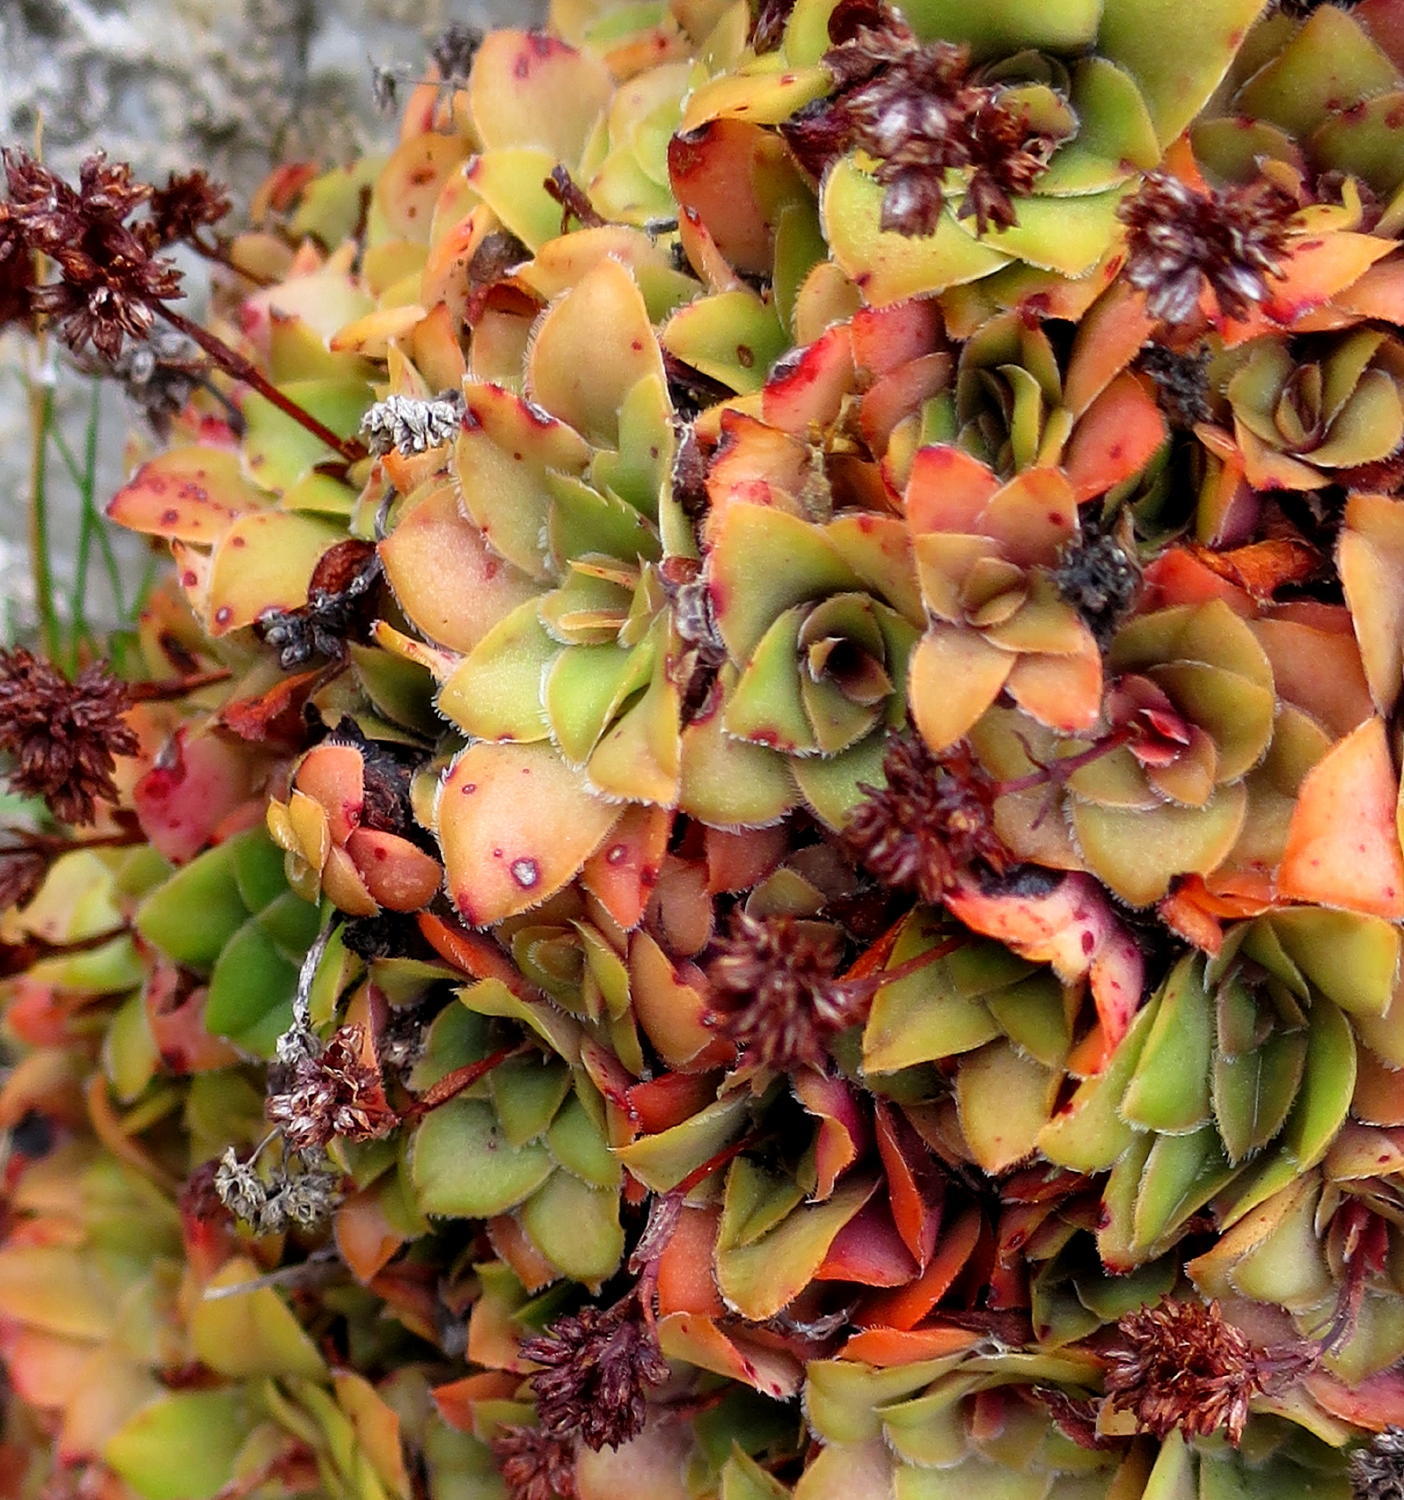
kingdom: Plantae
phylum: Tracheophyta
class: Magnoliopsida
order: Saxifragales
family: Crassulaceae
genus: Crassula
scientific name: Crassula orbicularis
